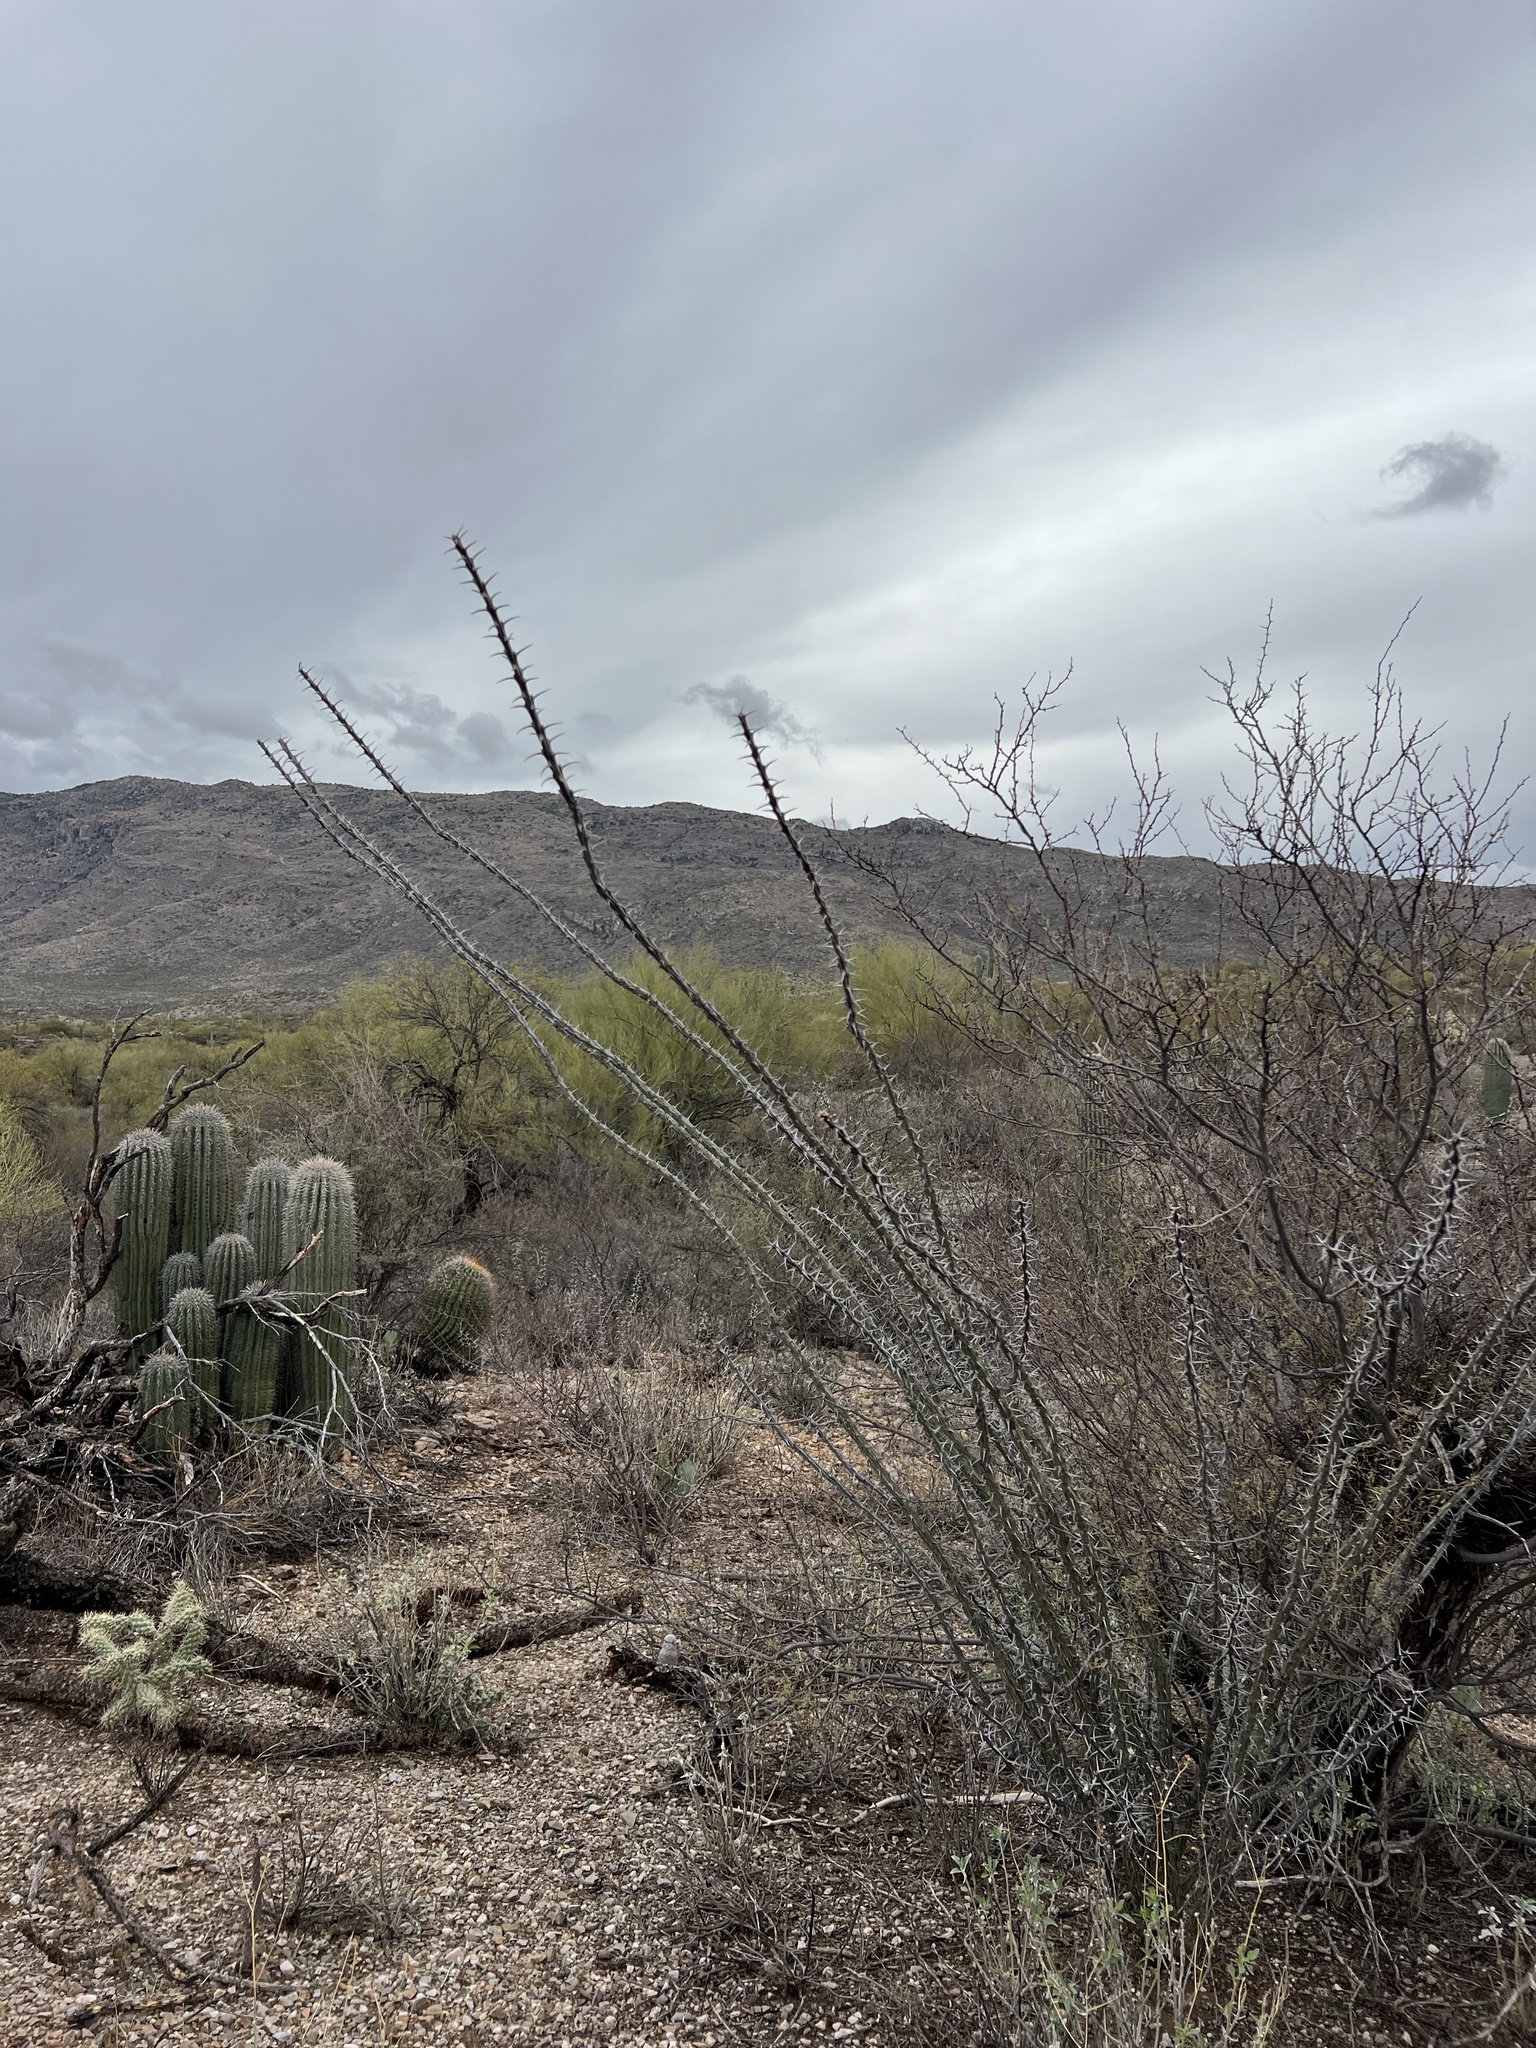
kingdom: Plantae
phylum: Tracheophyta
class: Magnoliopsida
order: Ericales
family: Fouquieriaceae
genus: Fouquieria
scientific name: Fouquieria splendens
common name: Vine-cactus
